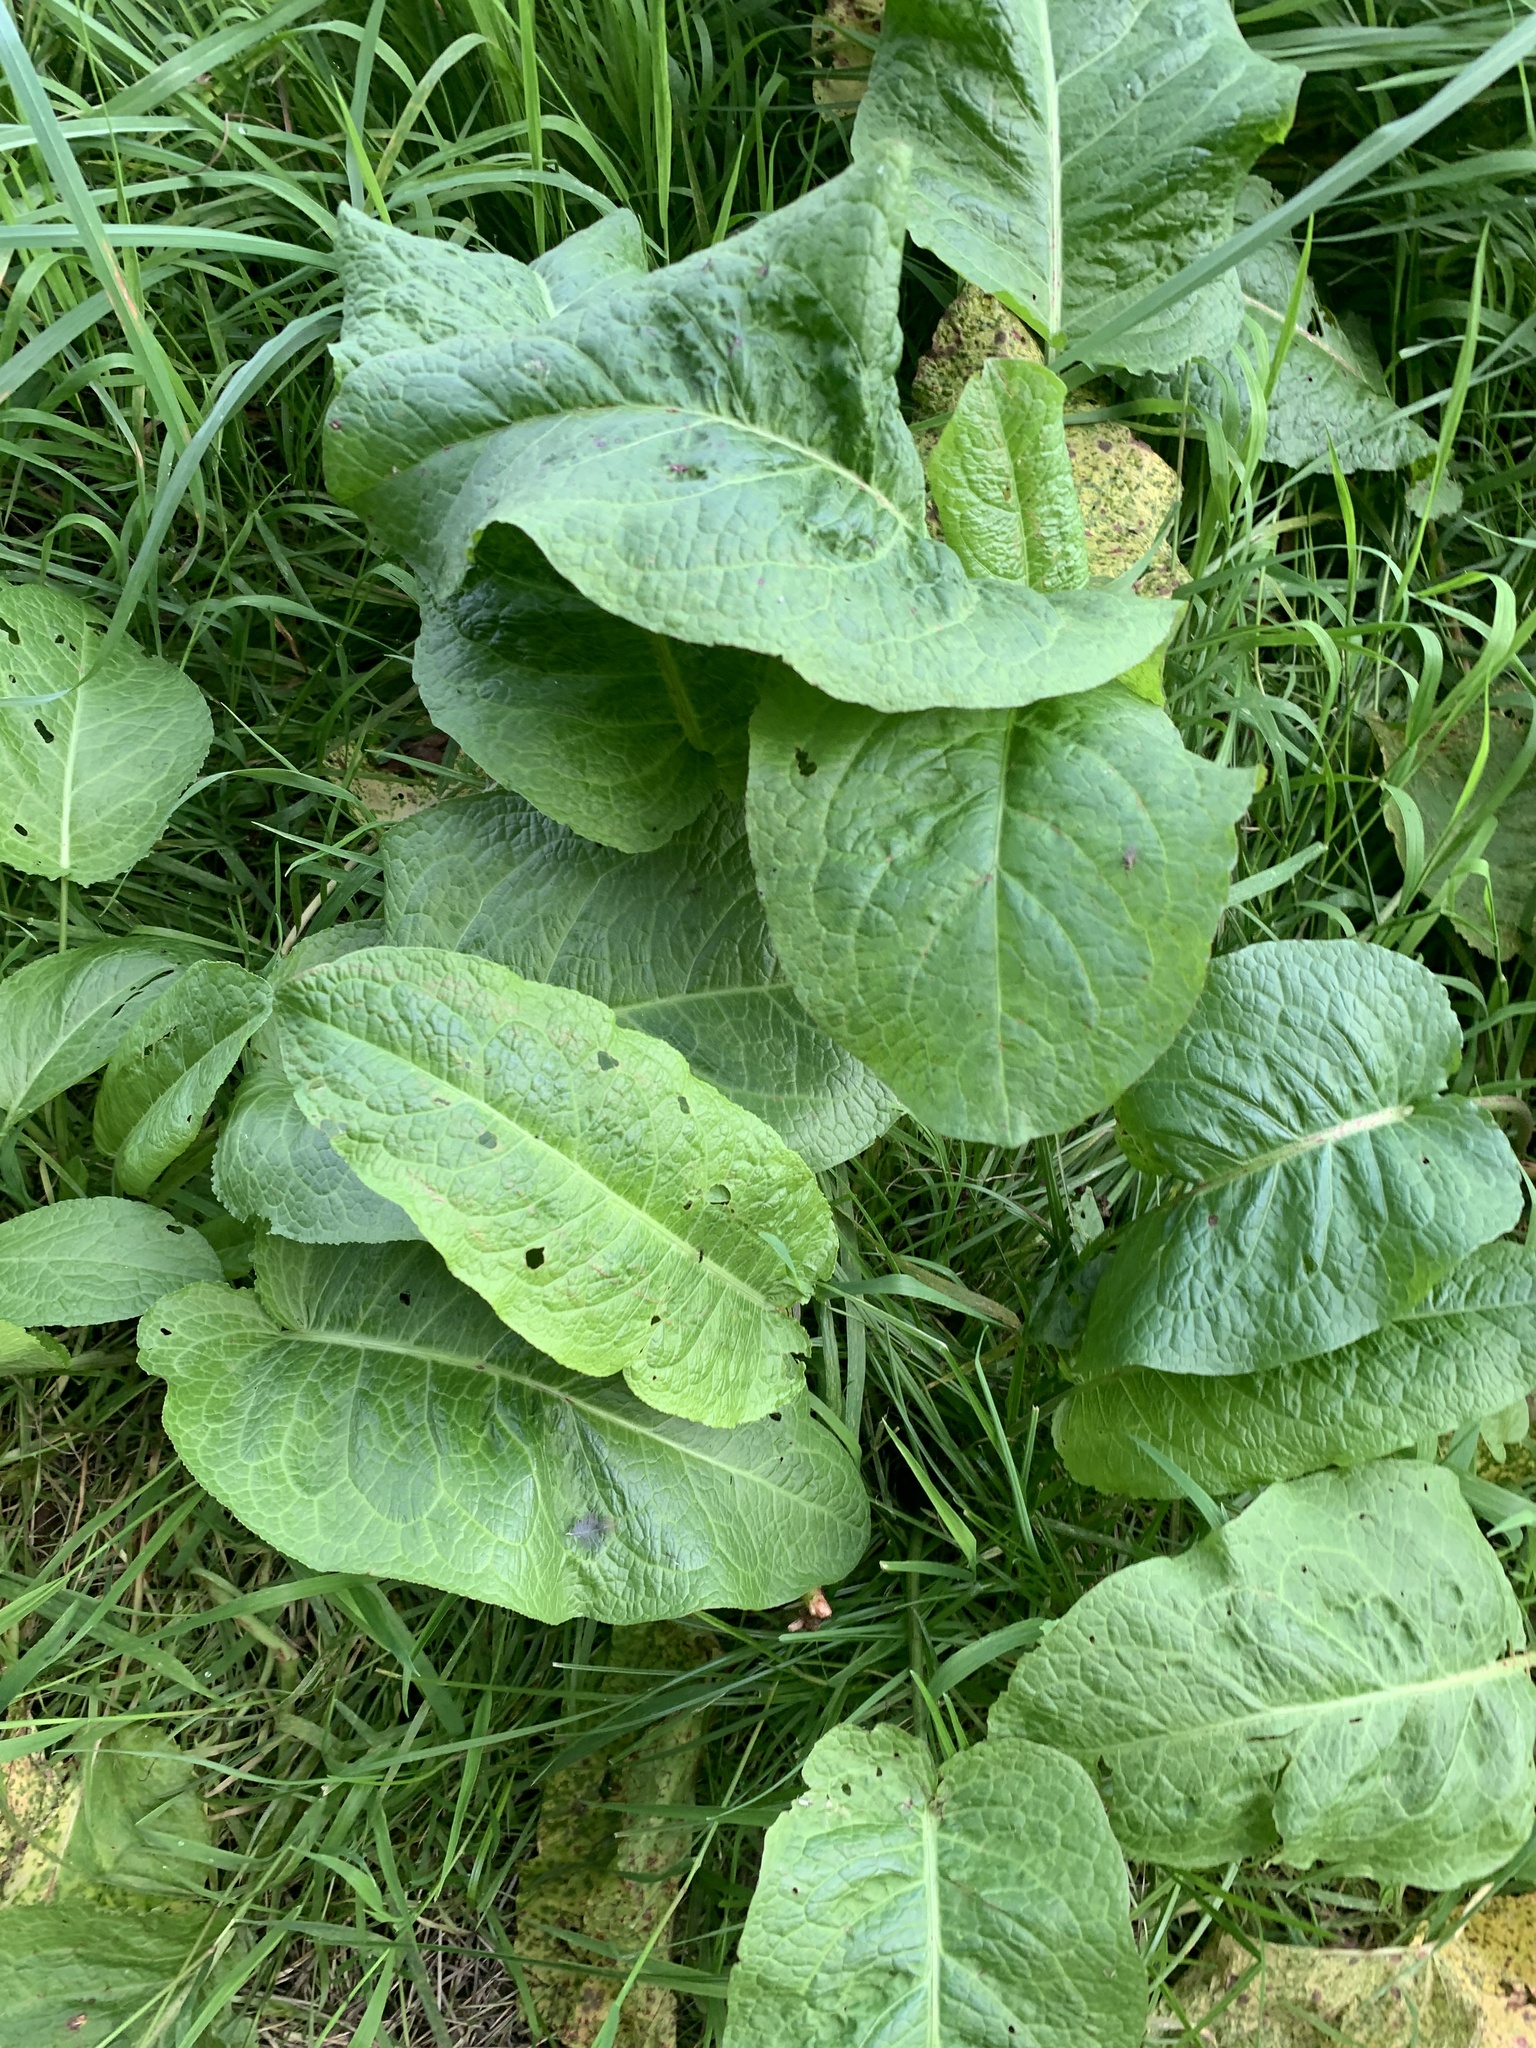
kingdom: Plantae
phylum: Tracheophyta
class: Magnoliopsida
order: Caryophyllales
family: Polygonaceae
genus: Rumex
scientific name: Rumex obtusifolius
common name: Bitter dock
